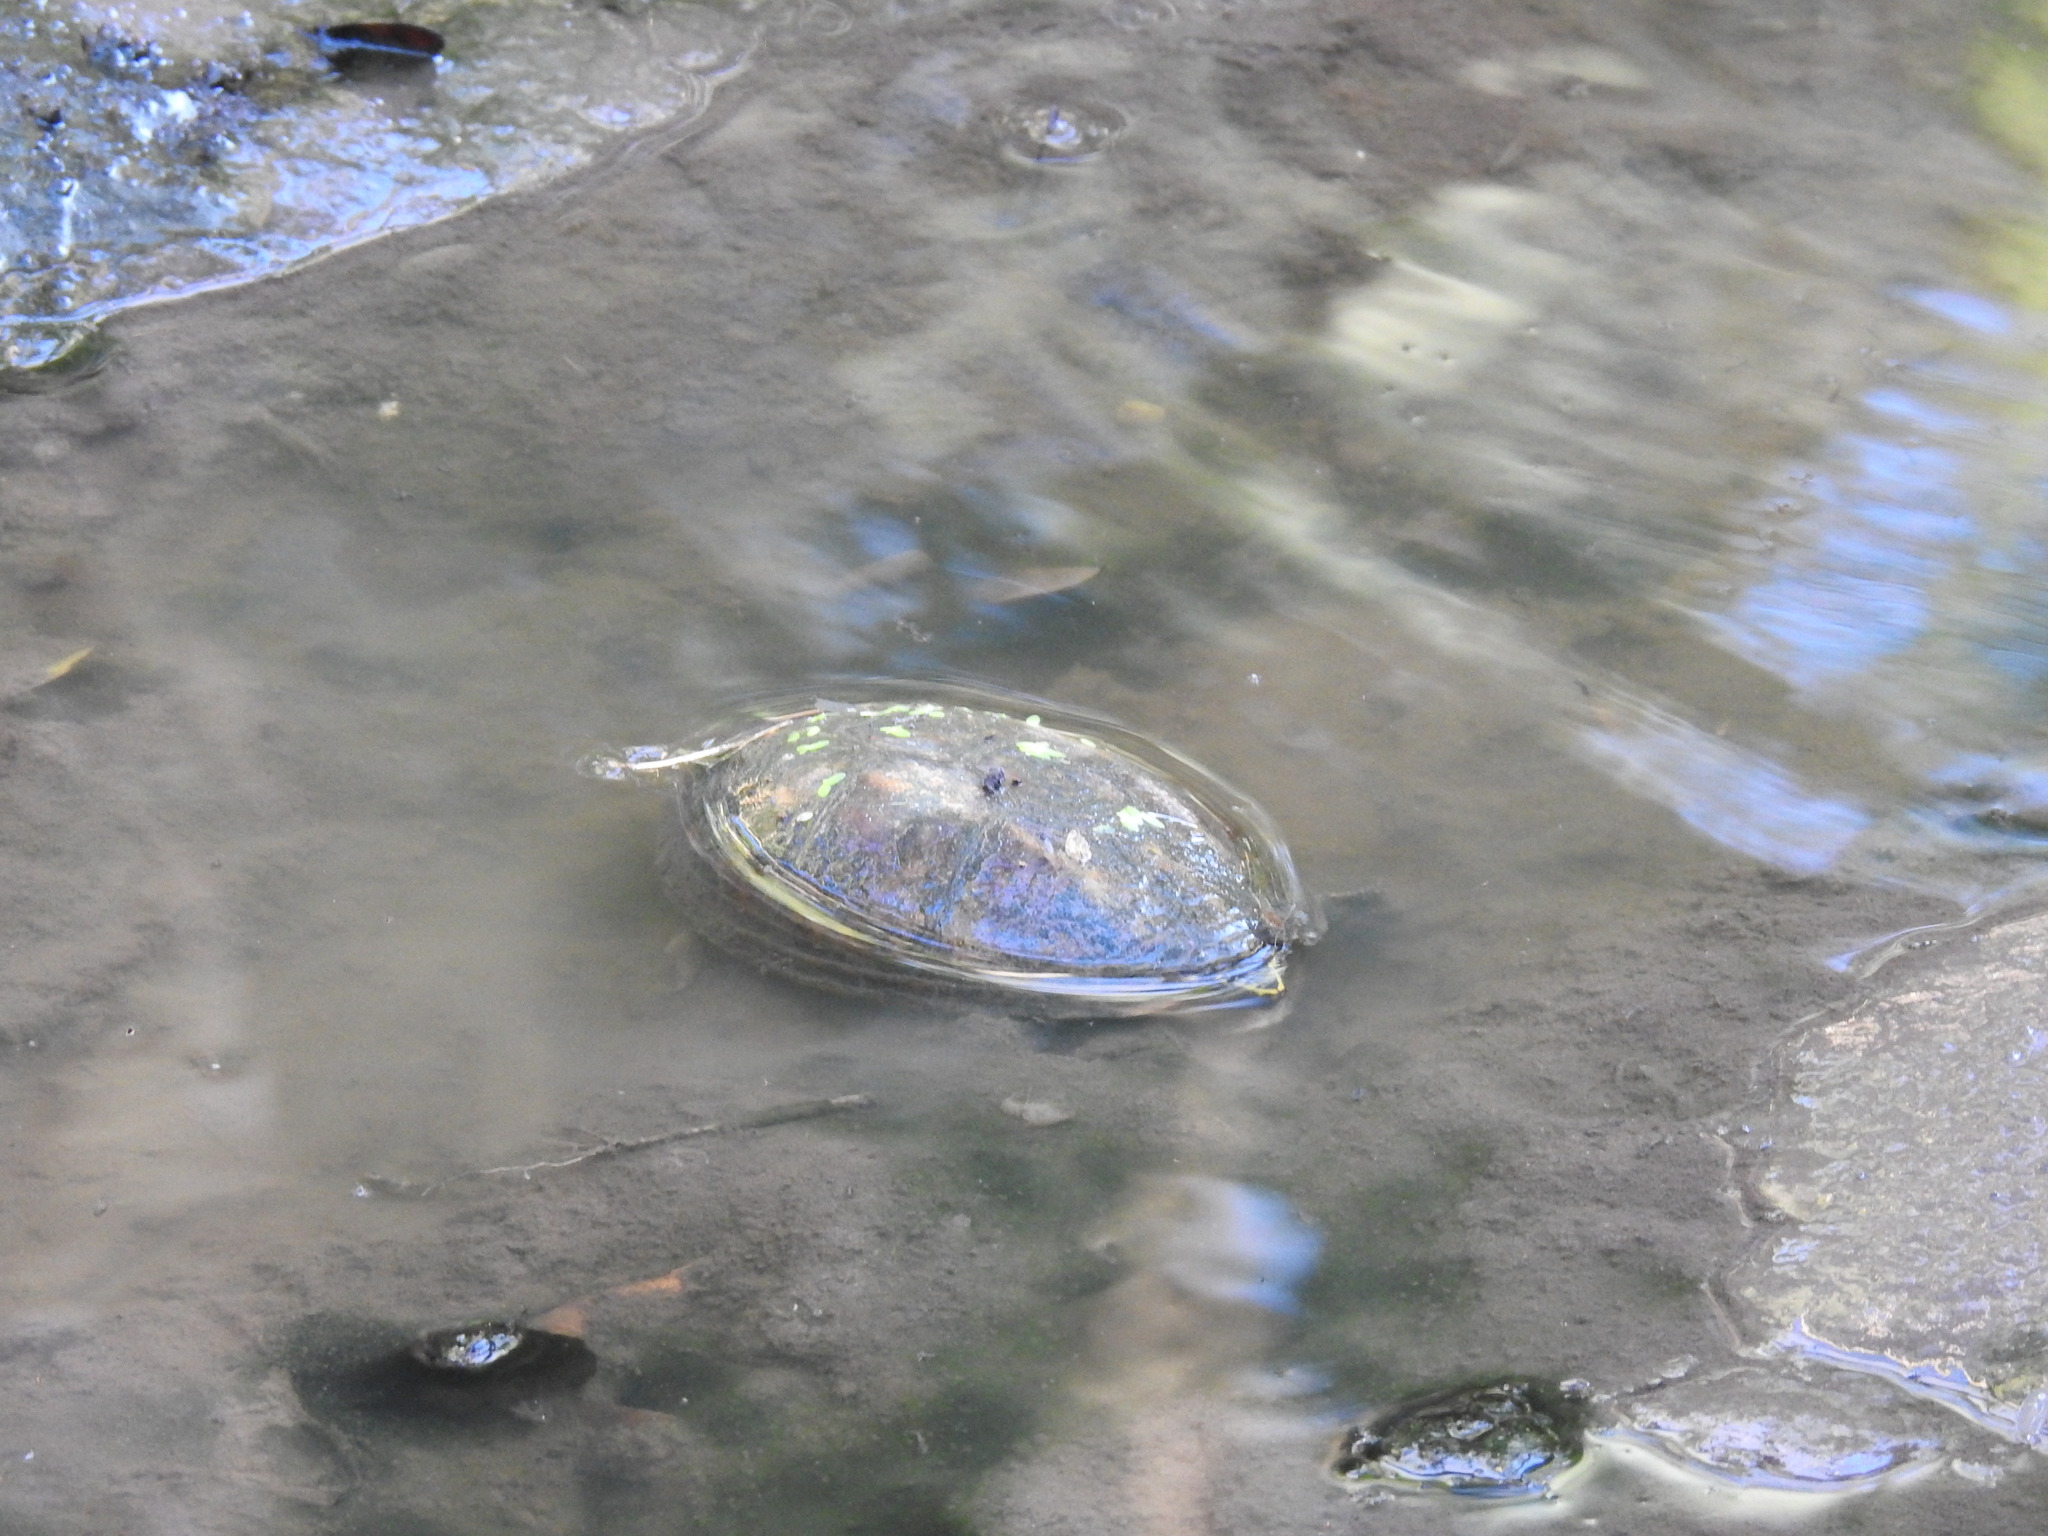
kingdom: Animalia
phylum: Chordata
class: Testudines
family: Kinosternidae
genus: Kinosternon
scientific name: Kinosternon baurii
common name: Striped mud turtle
